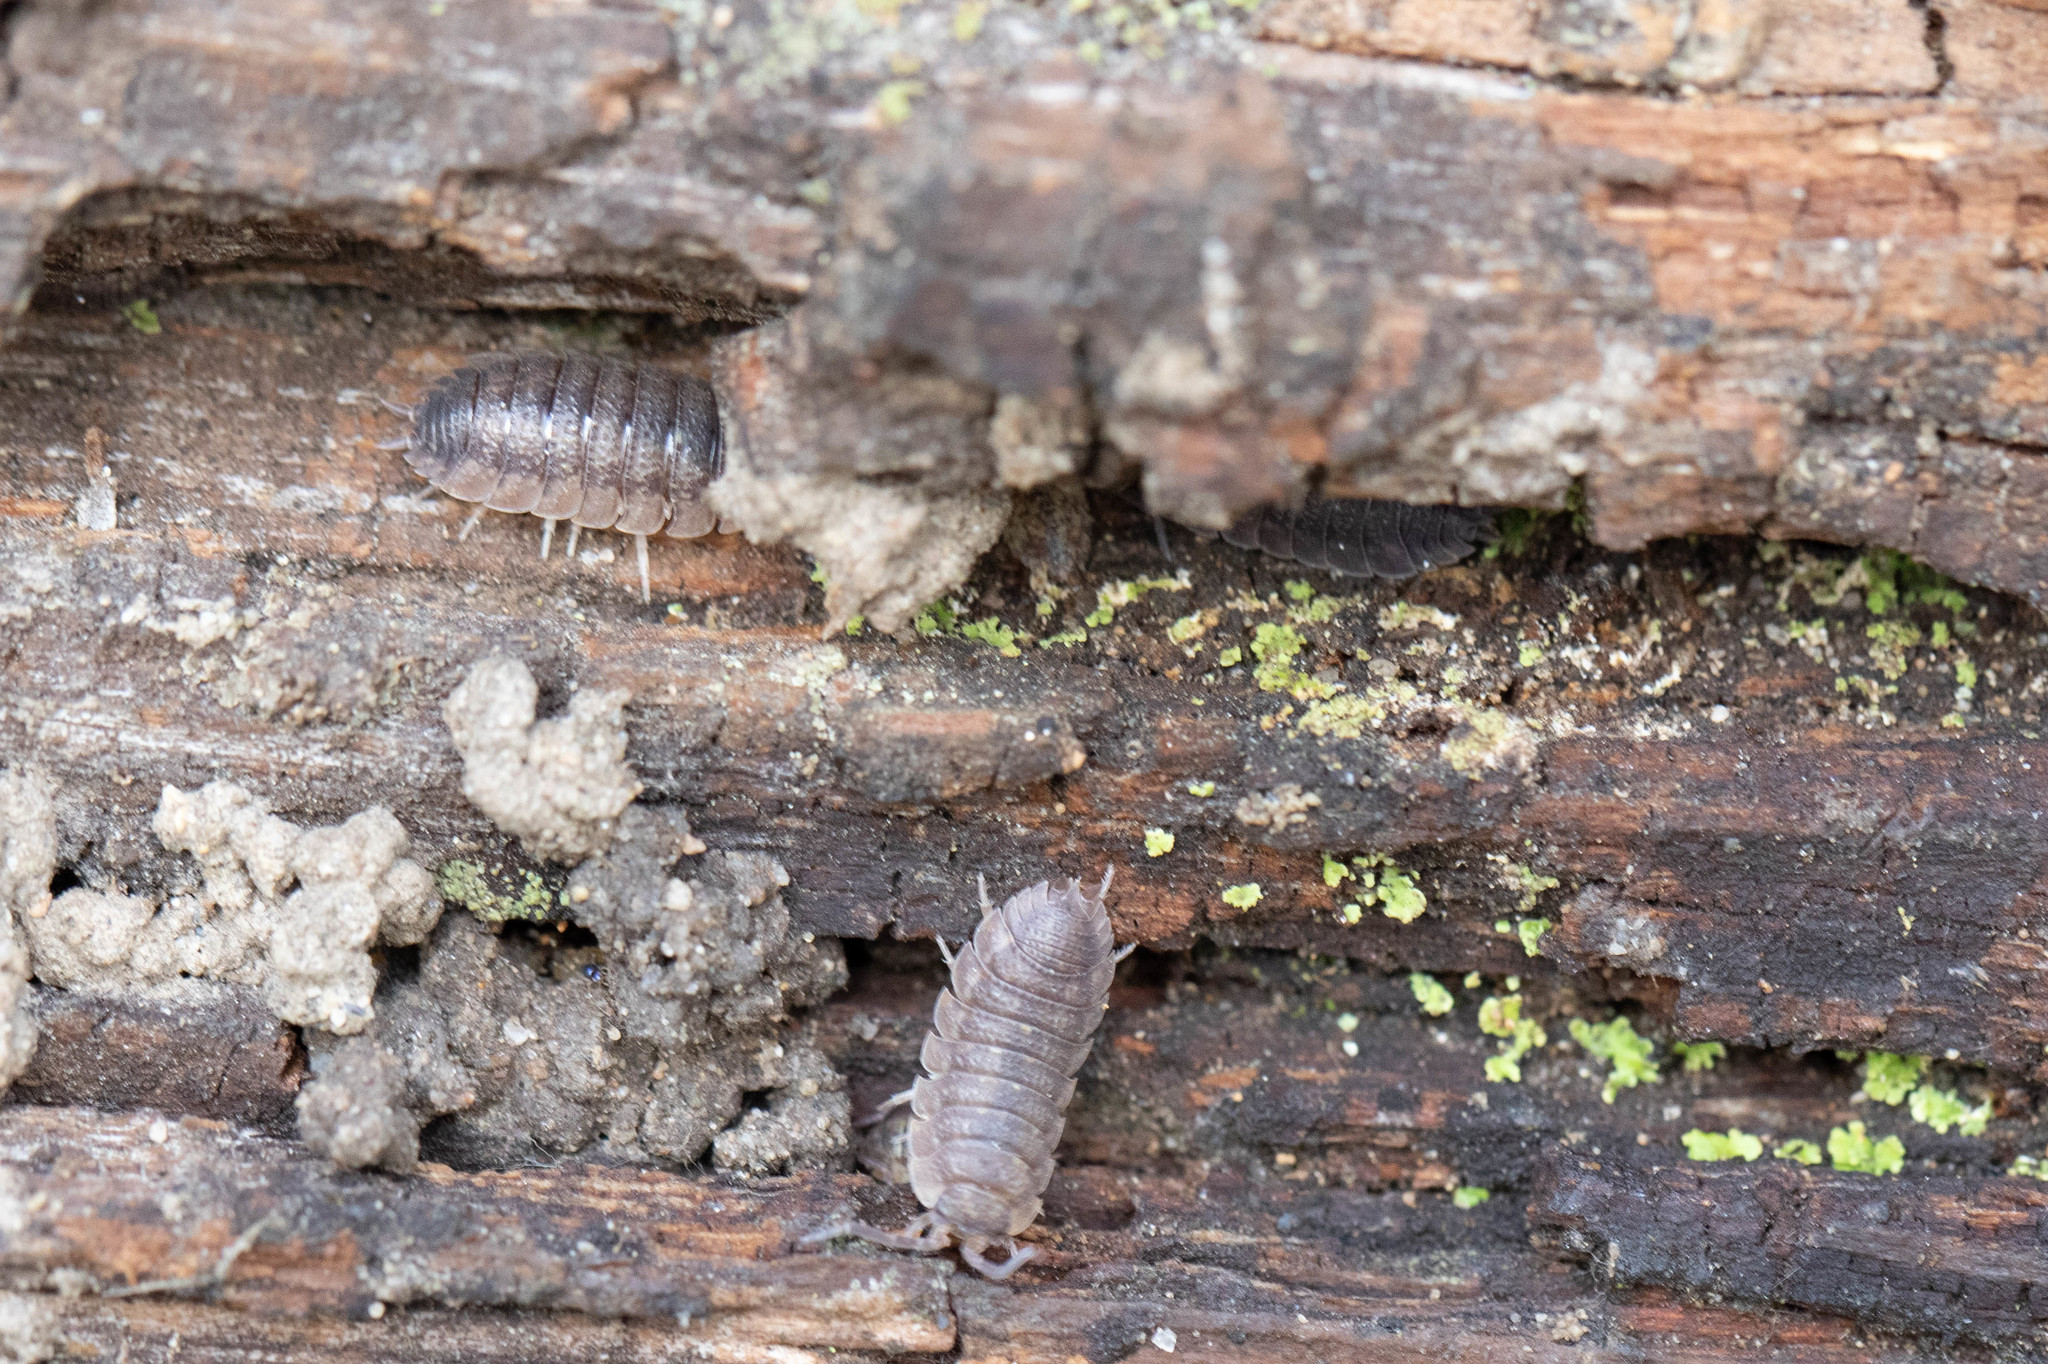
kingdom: Animalia
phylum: Arthropoda
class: Malacostraca
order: Isopoda
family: Porcellionidae
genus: Porcellio
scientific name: Porcellio scaber
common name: Common rough woodlouse
